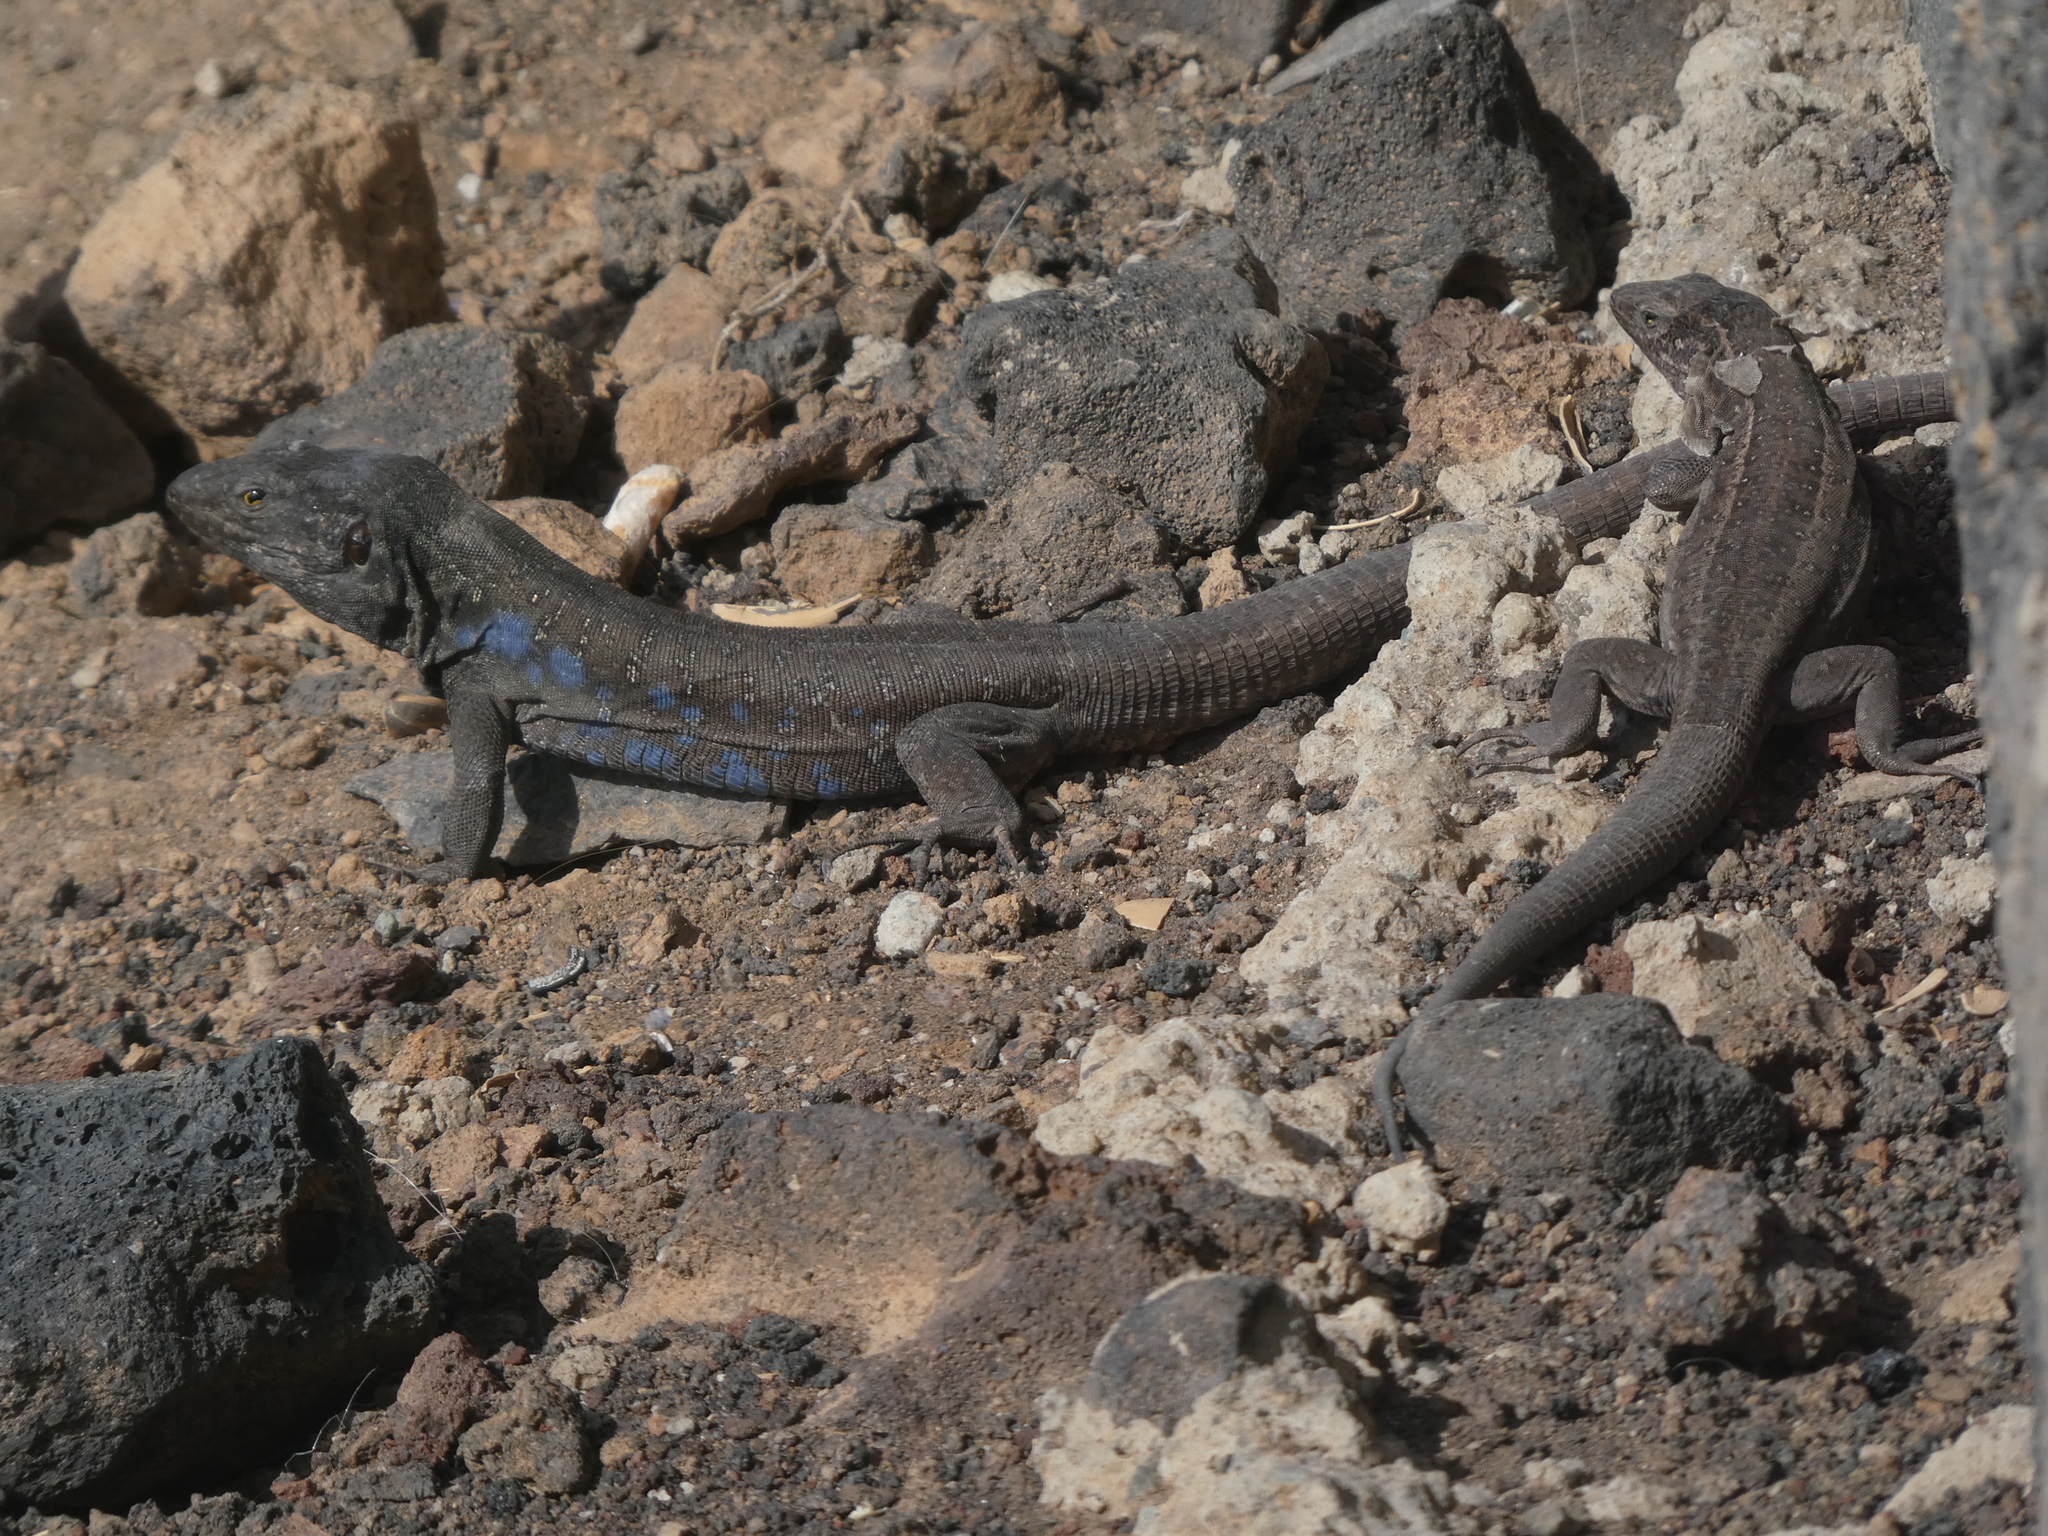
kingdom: Animalia
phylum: Chordata
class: Squamata
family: Lacertidae
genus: Gallotia
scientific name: Gallotia galloti
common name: Gallot's lizard
